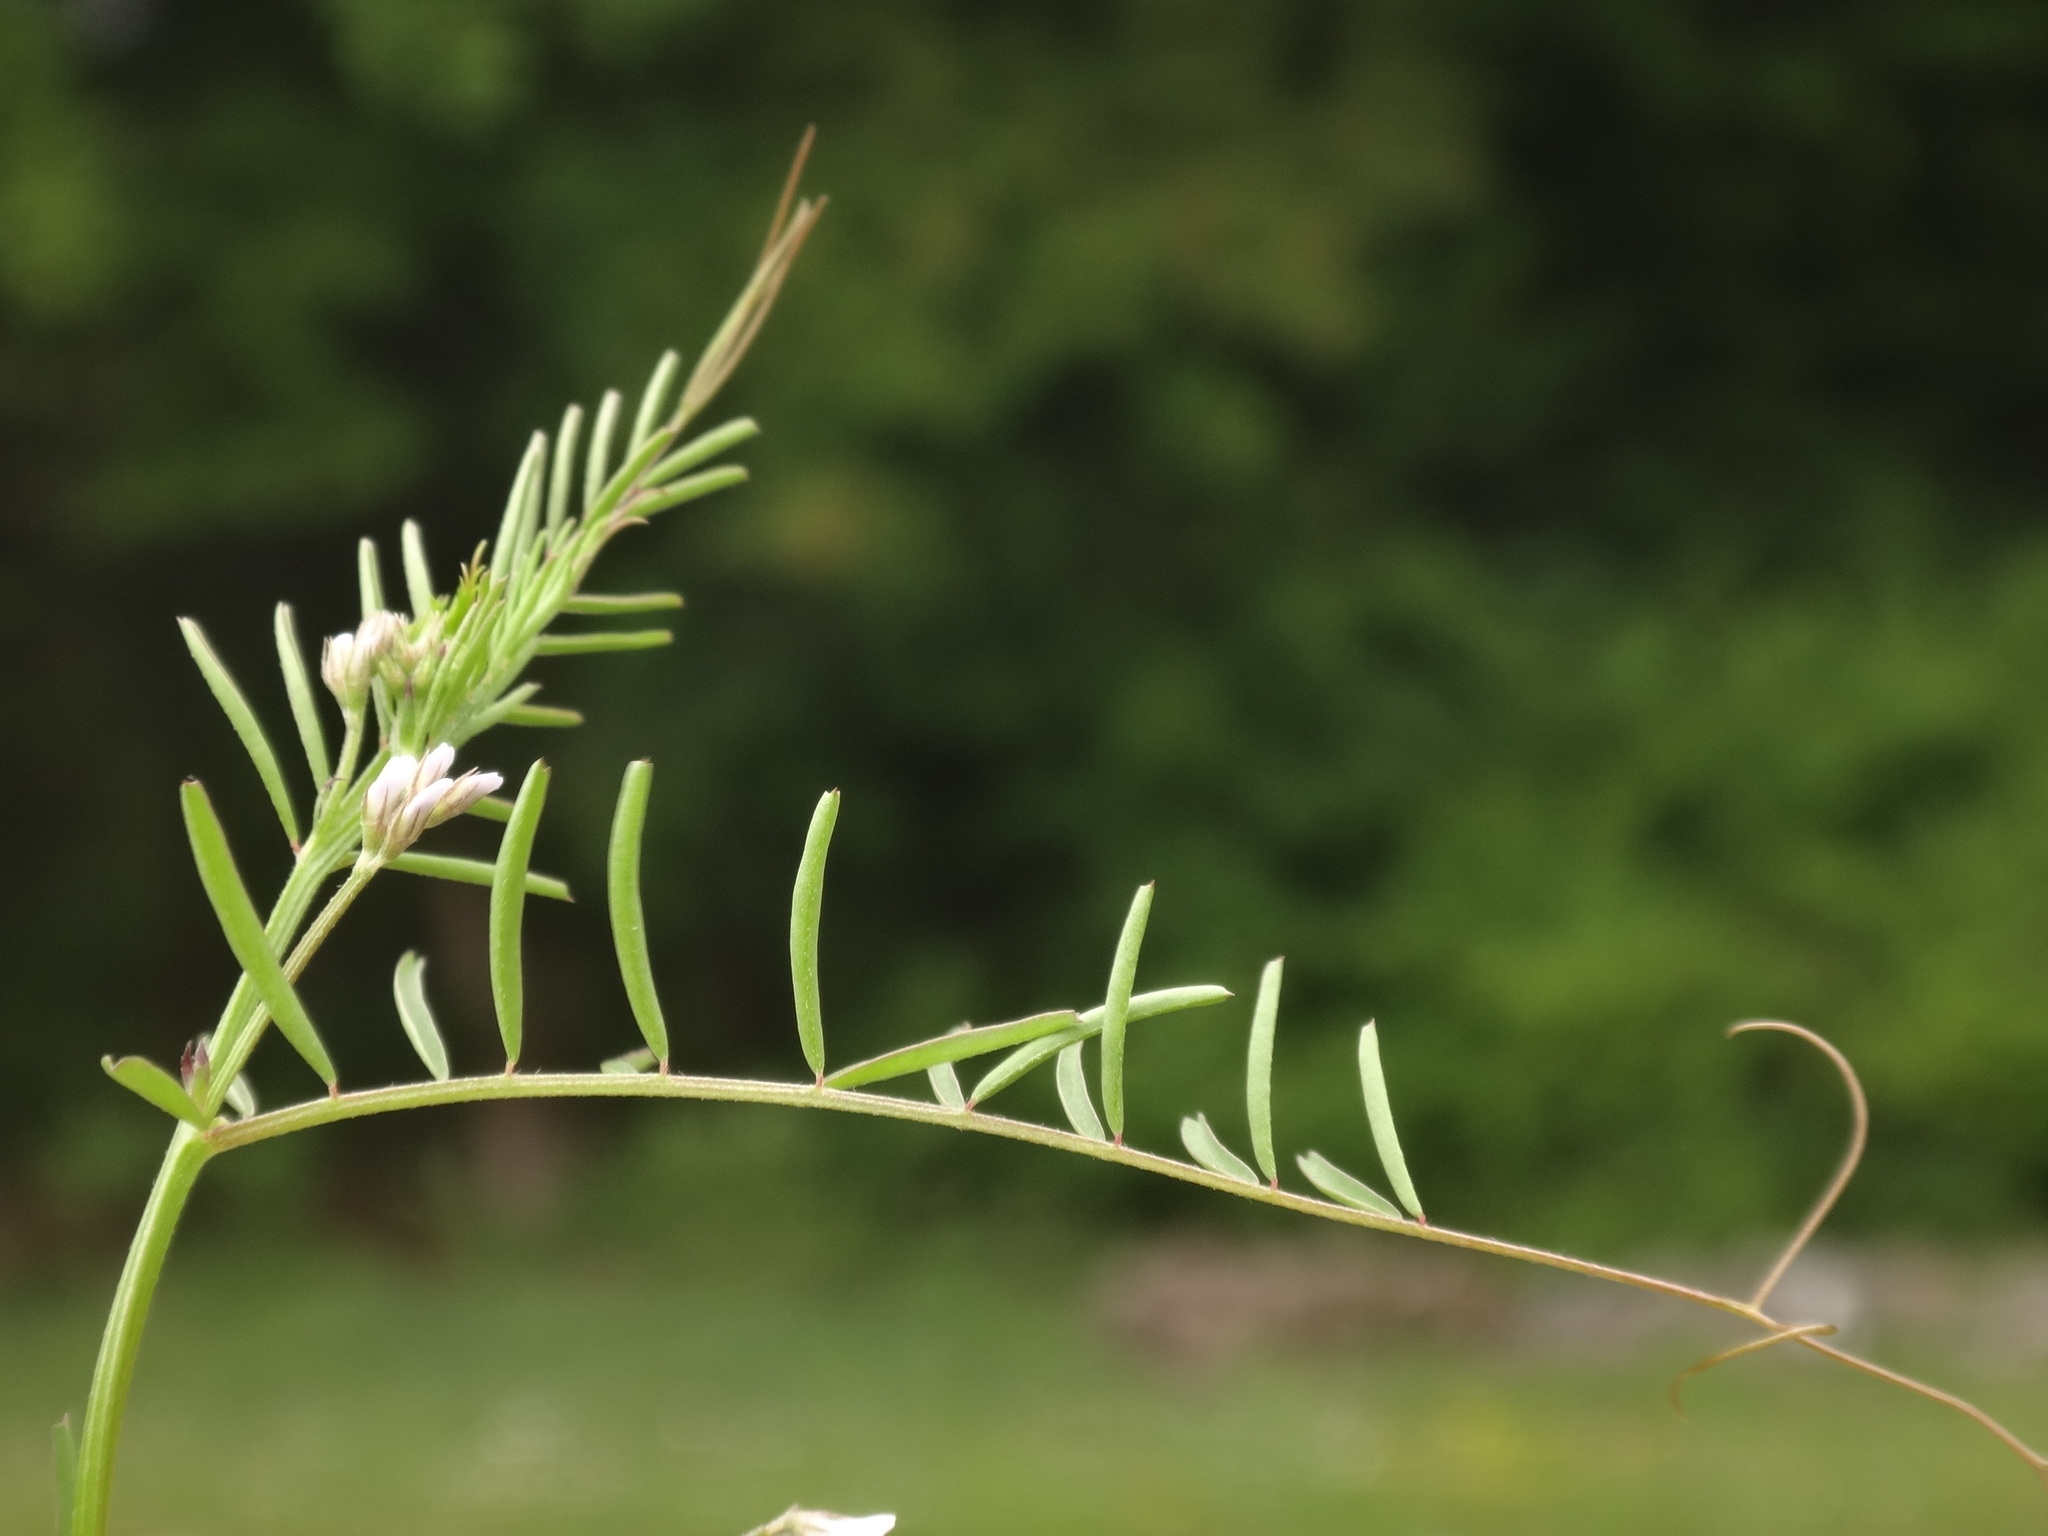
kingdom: Plantae
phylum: Tracheophyta
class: Magnoliopsida
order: Fabales
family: Fabaceae
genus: Vicia
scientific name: Vicia hirsuta
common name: Tiny vetch
